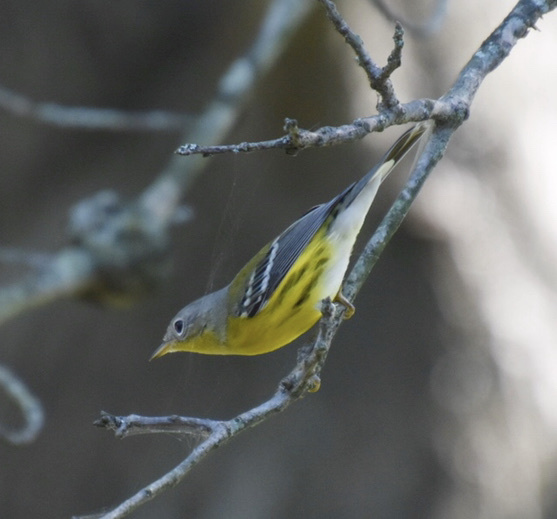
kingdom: Animalia
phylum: Chordata
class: Aves
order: Passeriformes
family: Parulidae
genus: Setophaga
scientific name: Setophaga magnolia
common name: Magnolia warbler
